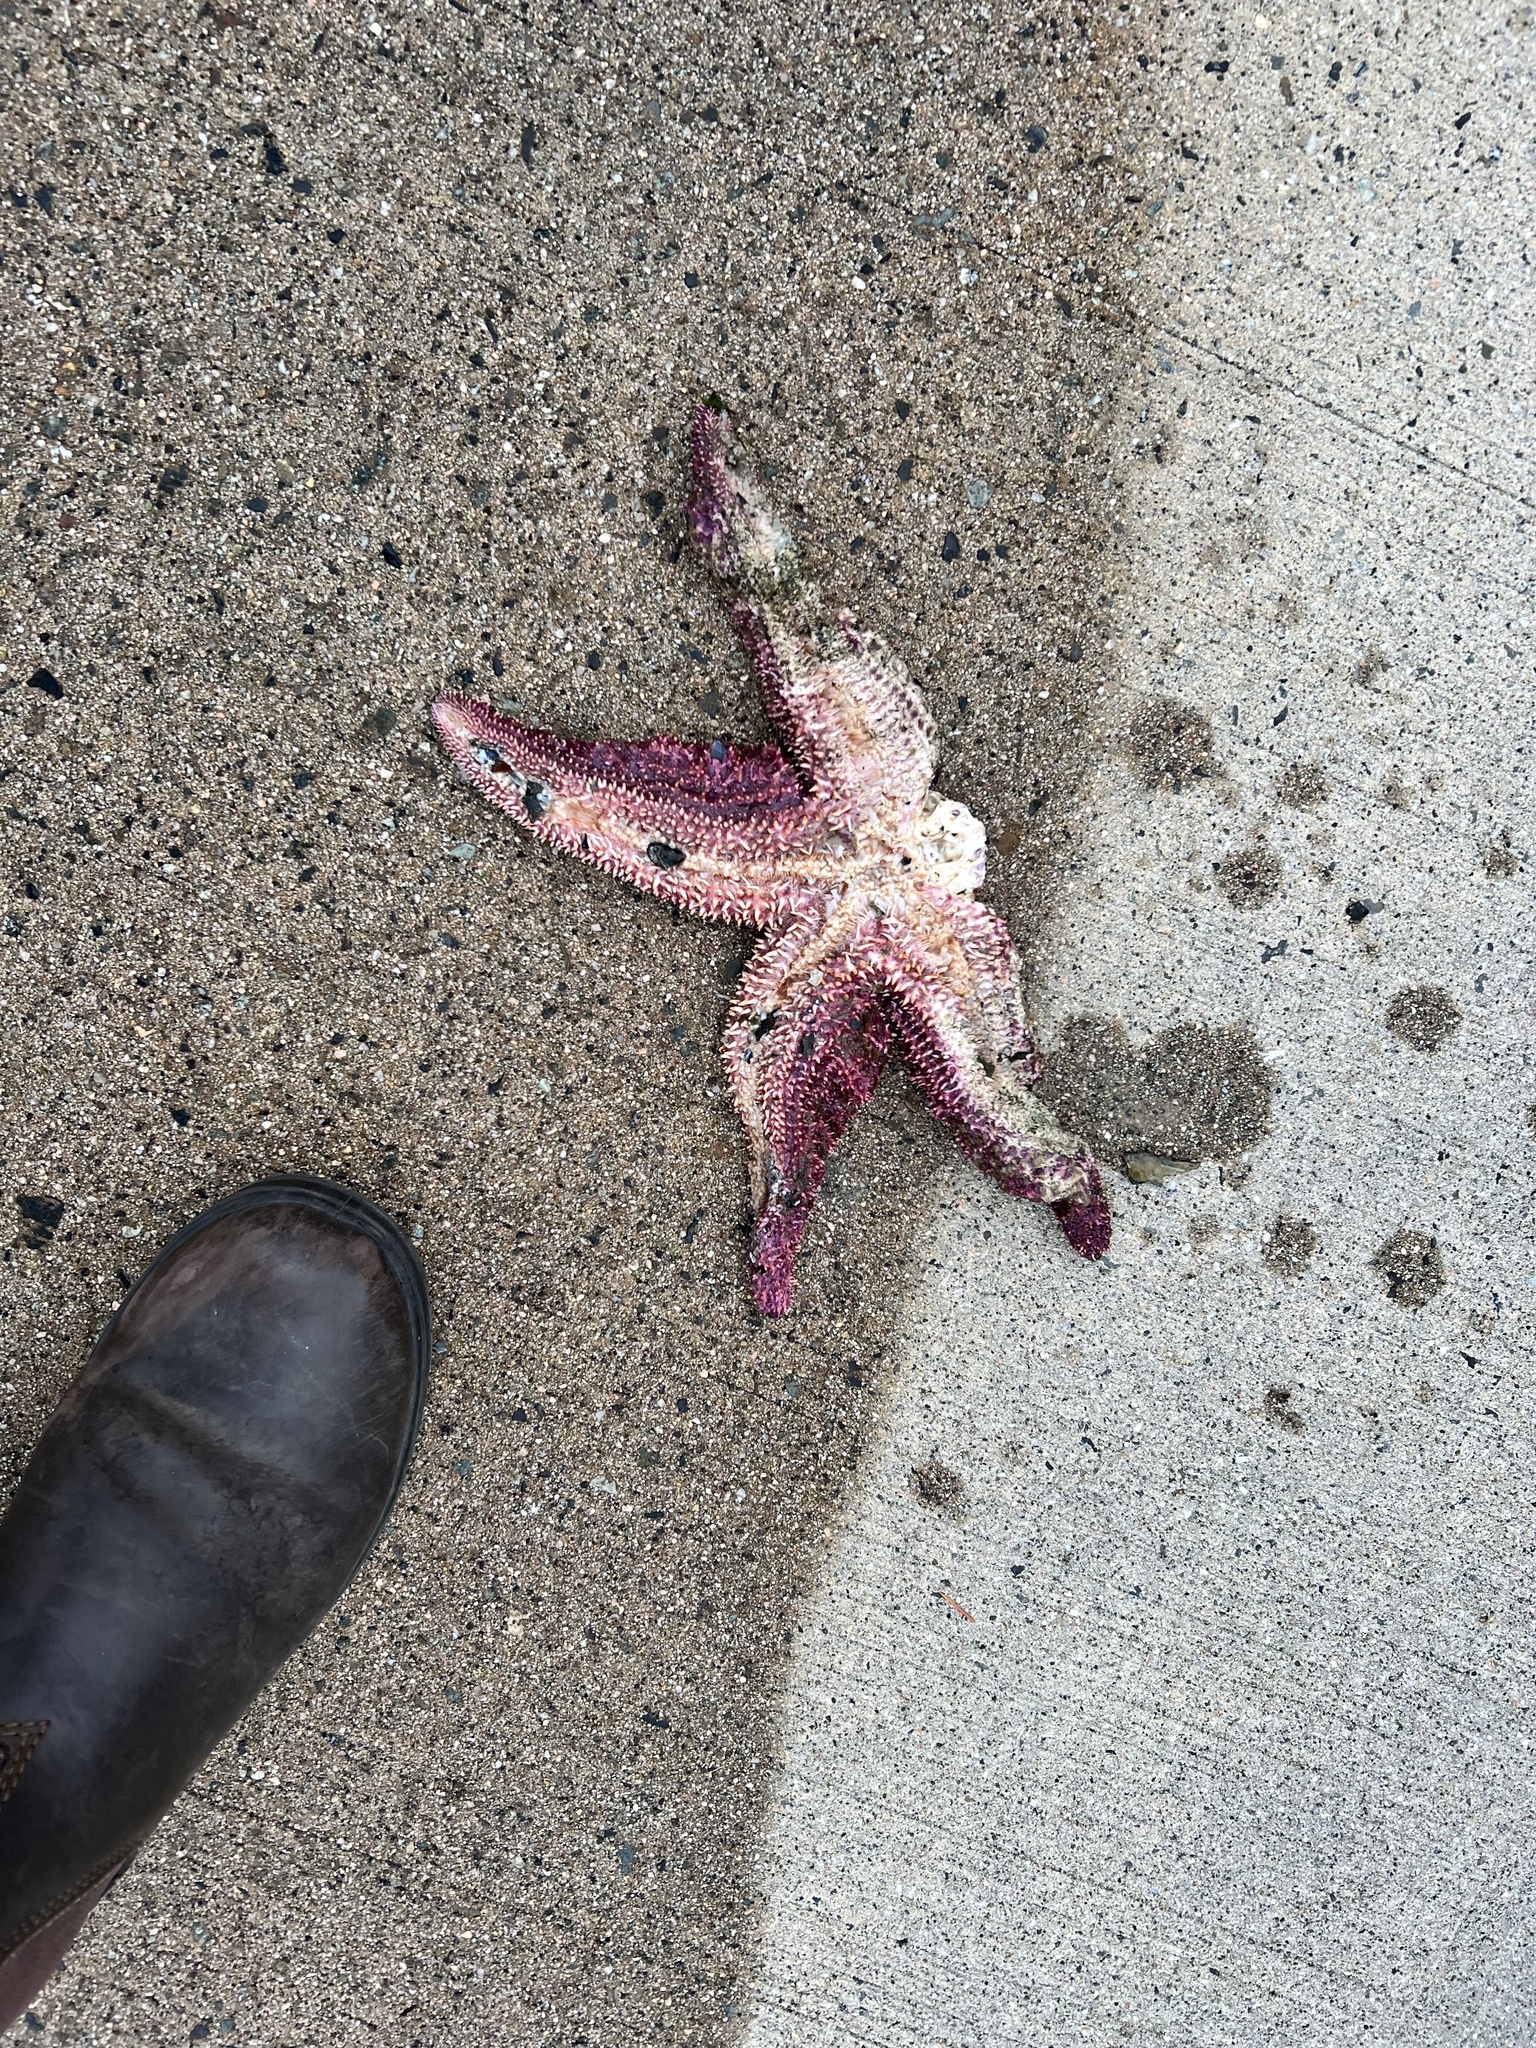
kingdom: Animalia
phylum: Echinodermata
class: Asteroidea
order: Forcipulatida
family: Asteriidae
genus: Pisaster
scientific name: Pisaster ochraceus
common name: Ochre stars
